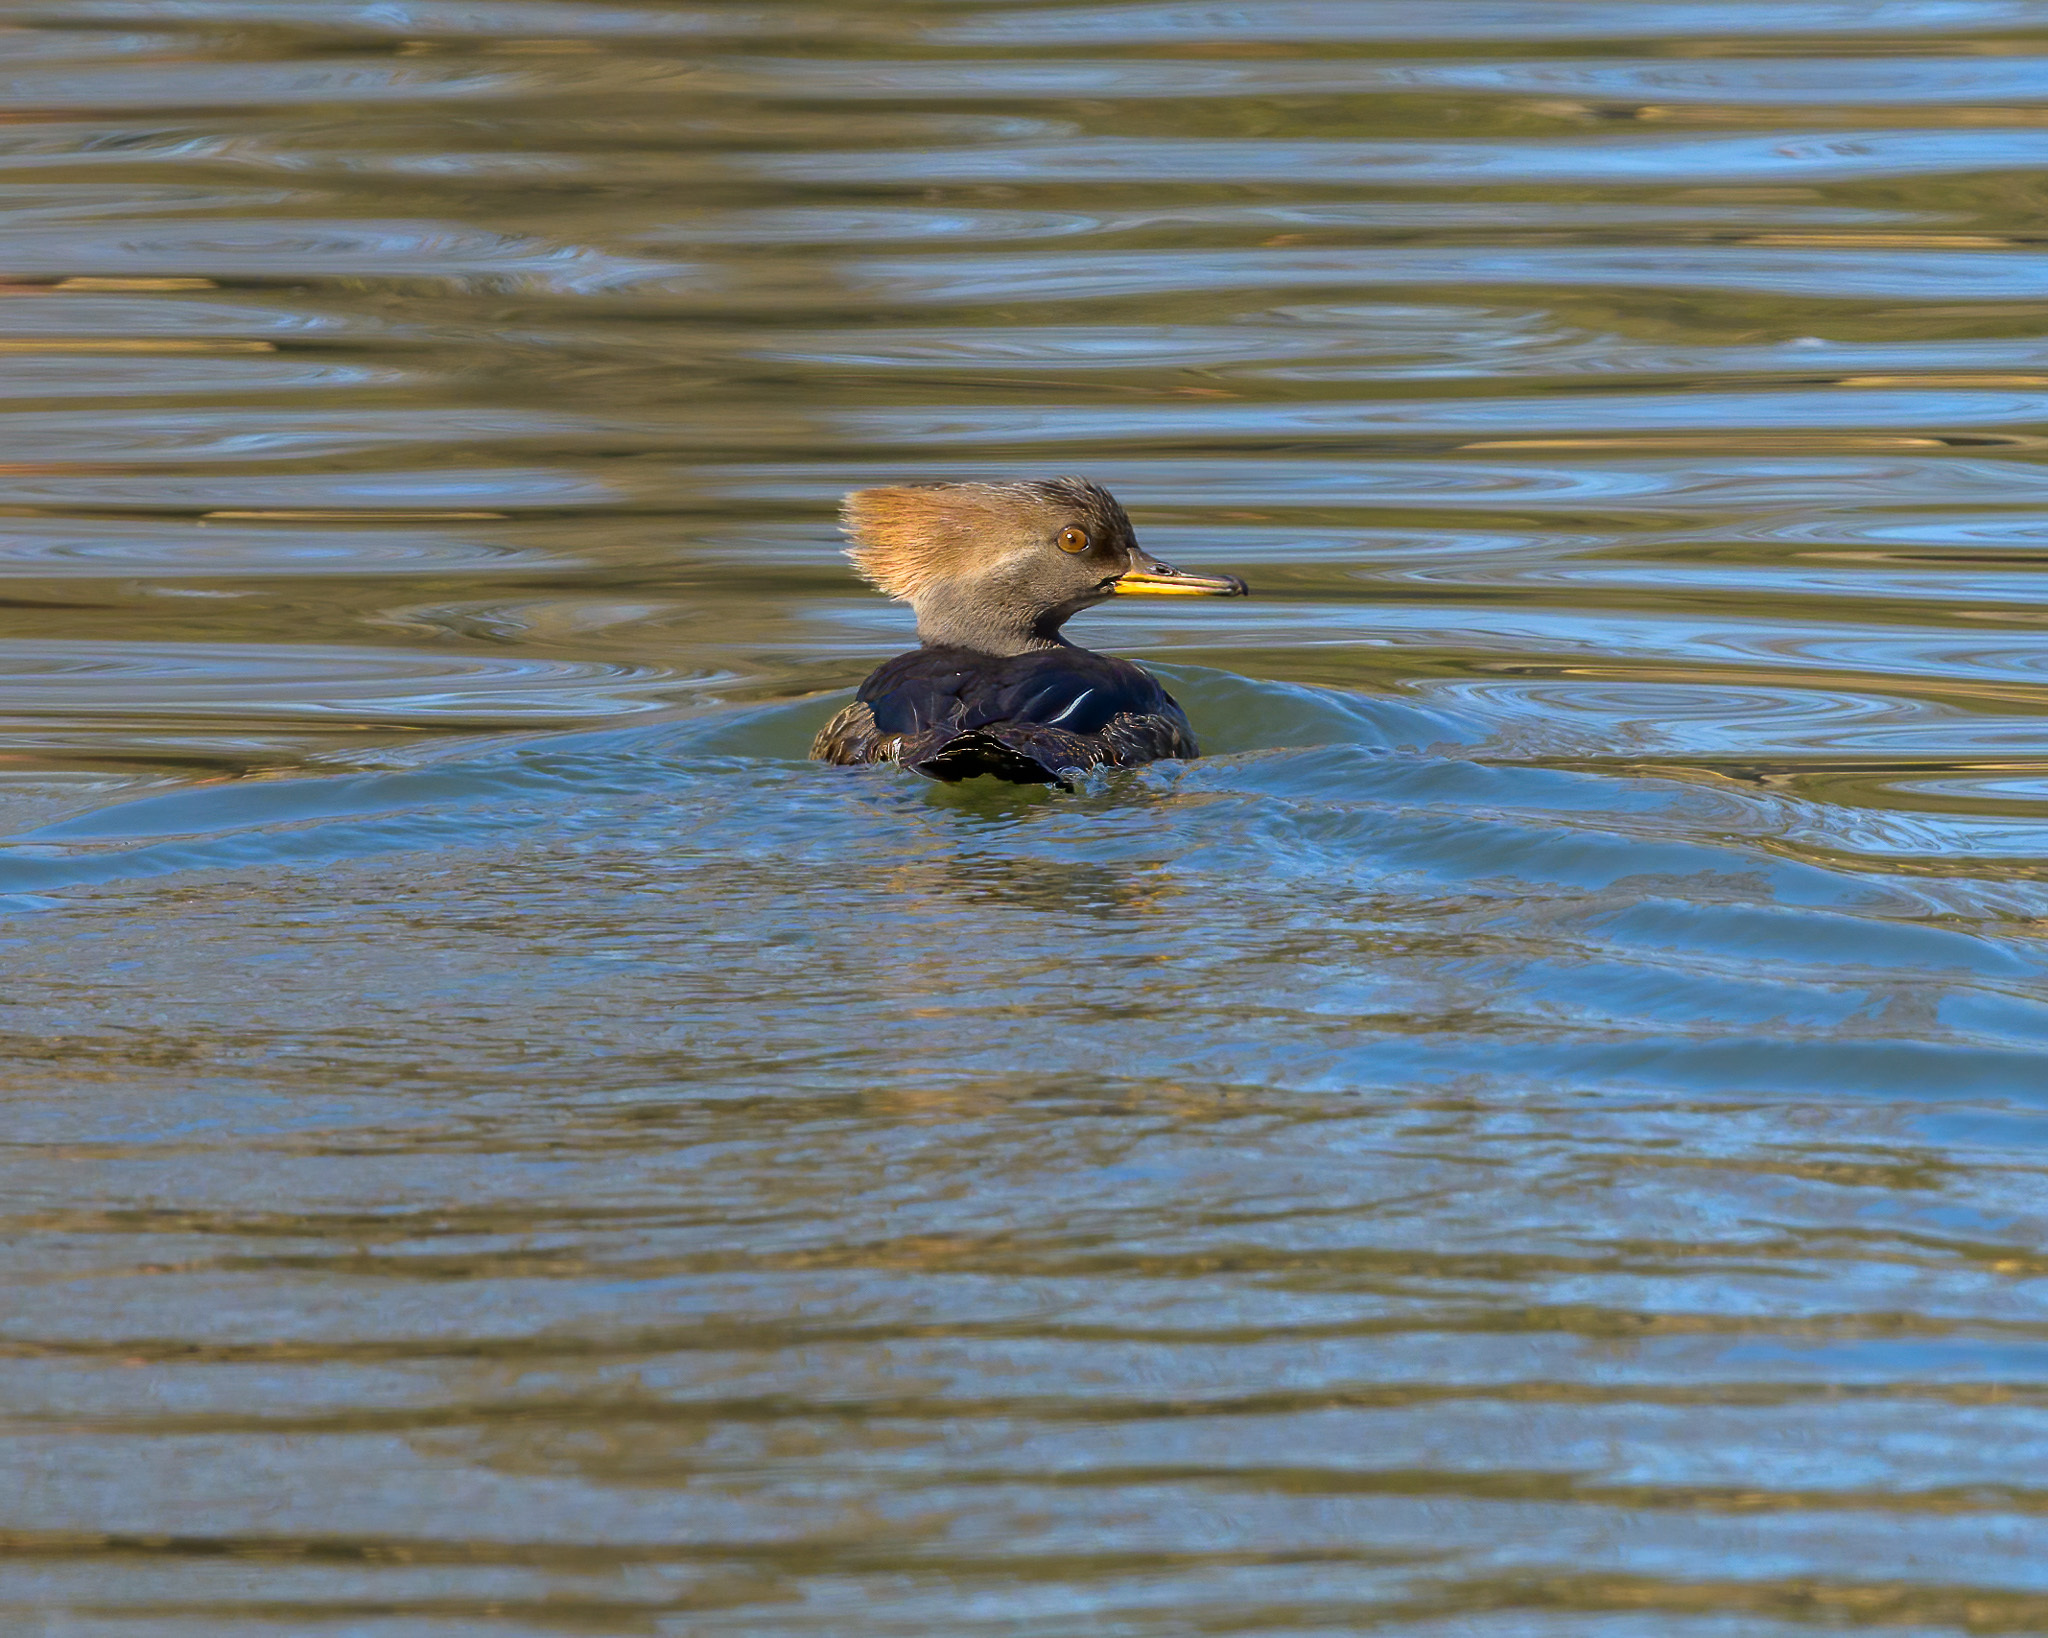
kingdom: Animalia
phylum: Chordata
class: Aves
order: Anseriformes
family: Anatidae
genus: Lophodytes
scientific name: Lophodytes cucullatus
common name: Hooded merganser
